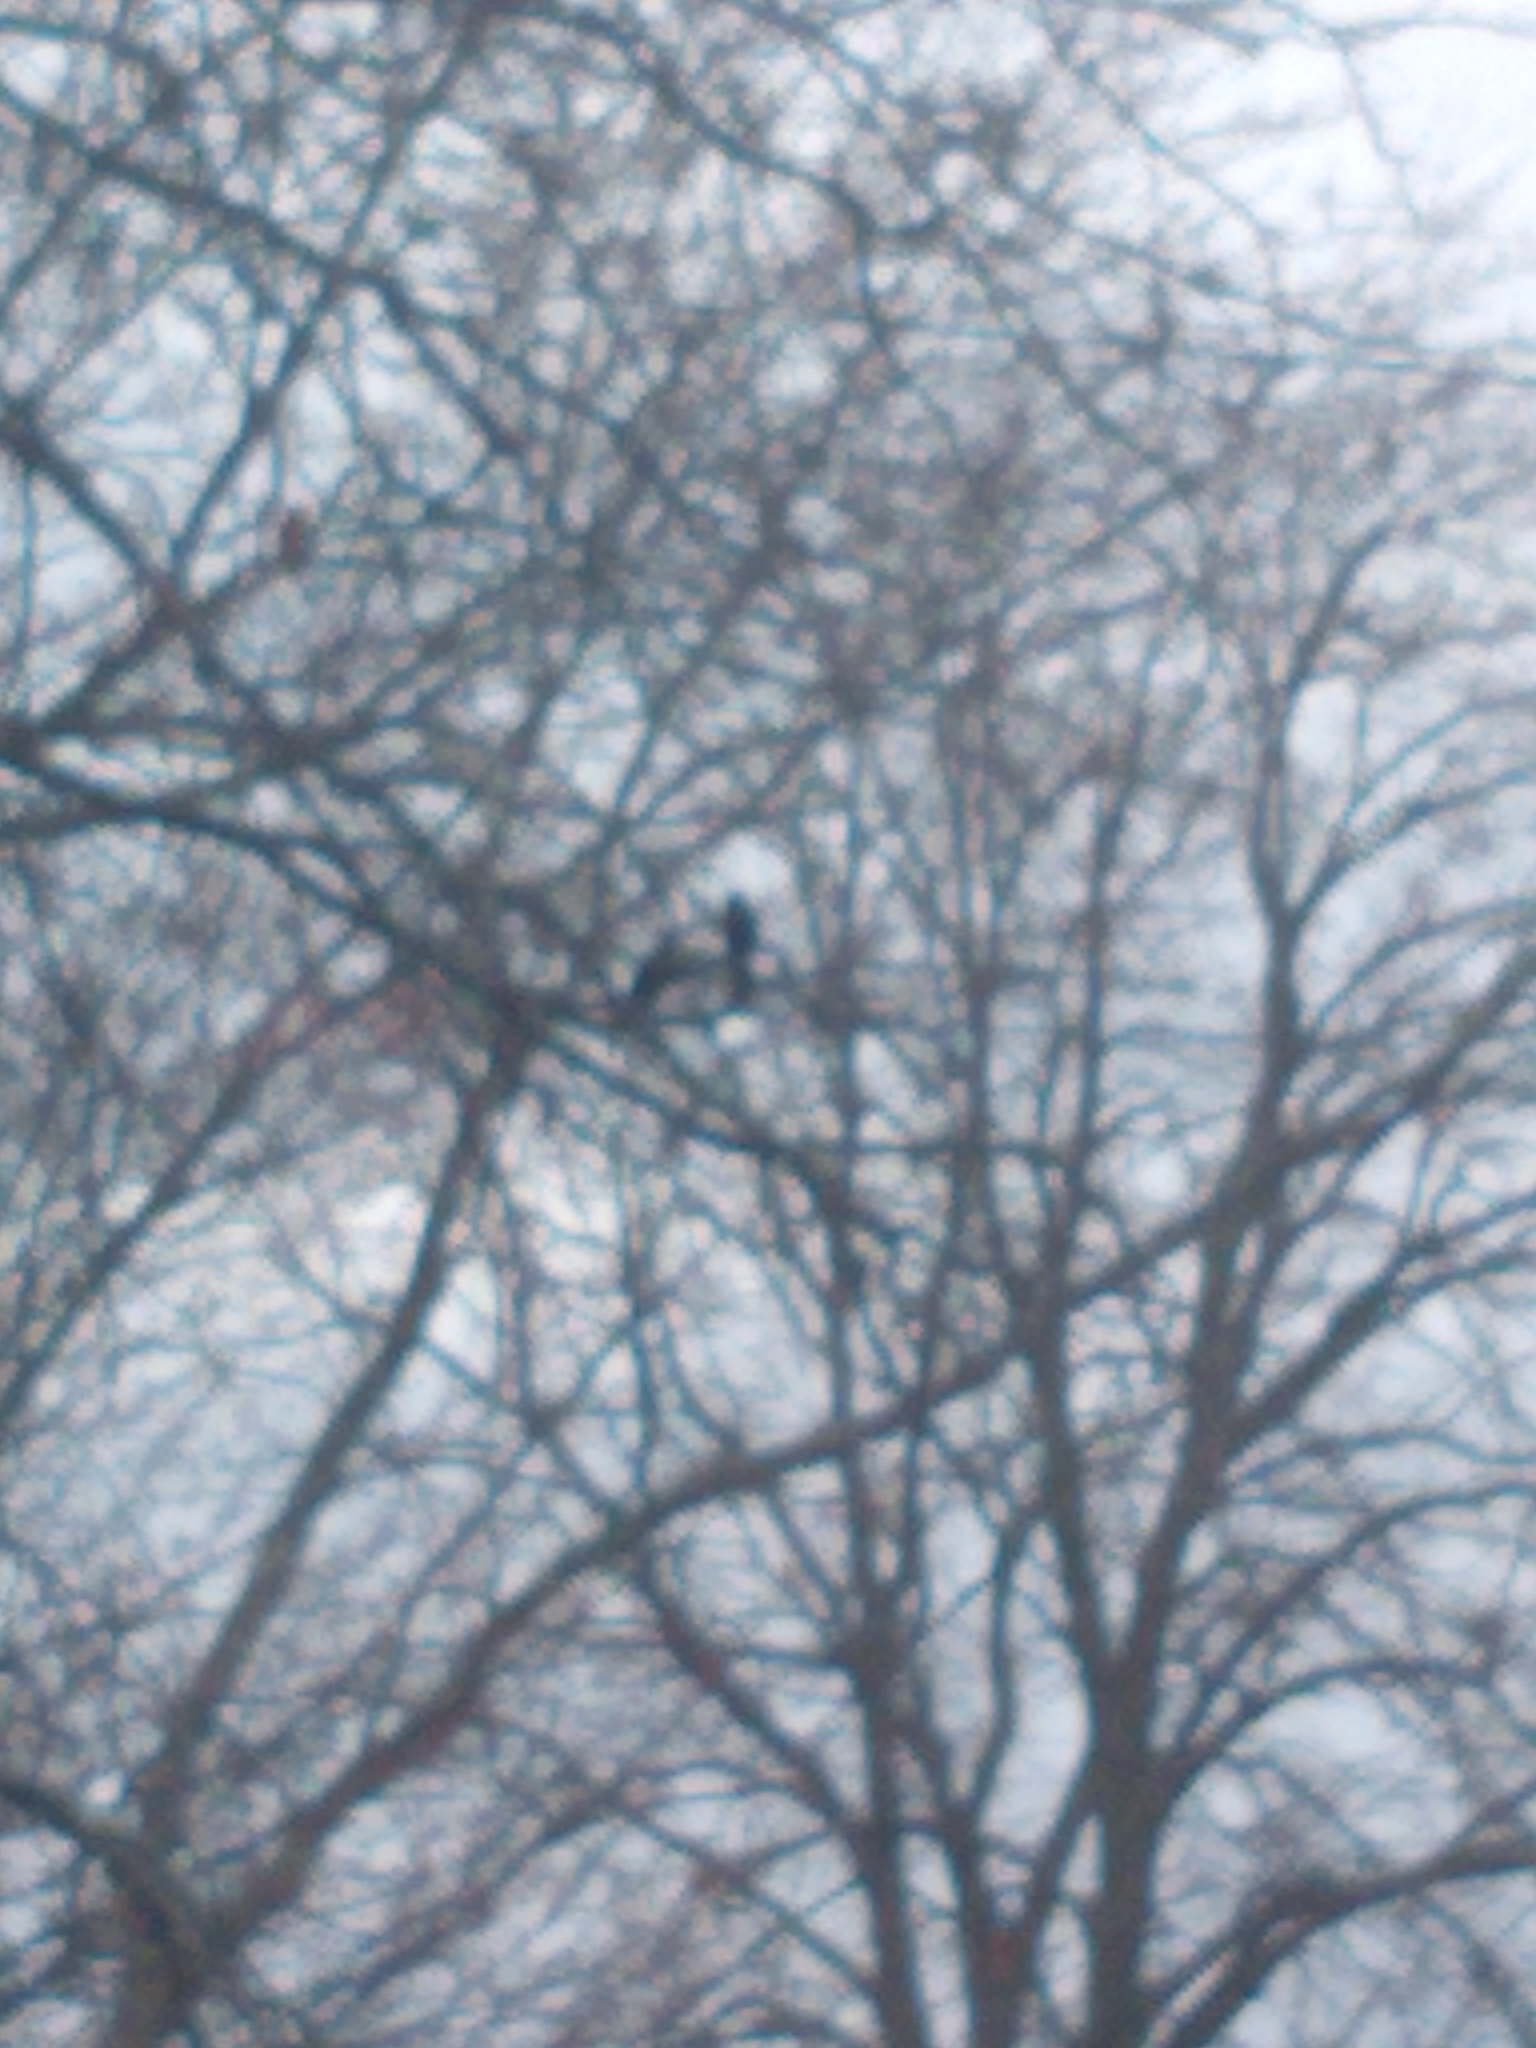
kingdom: Animalia
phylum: Chordata
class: Aves
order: Passeriformes
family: Icteridae
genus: Quiscalus
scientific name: Quiscalus quiscula
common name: Common grackle
